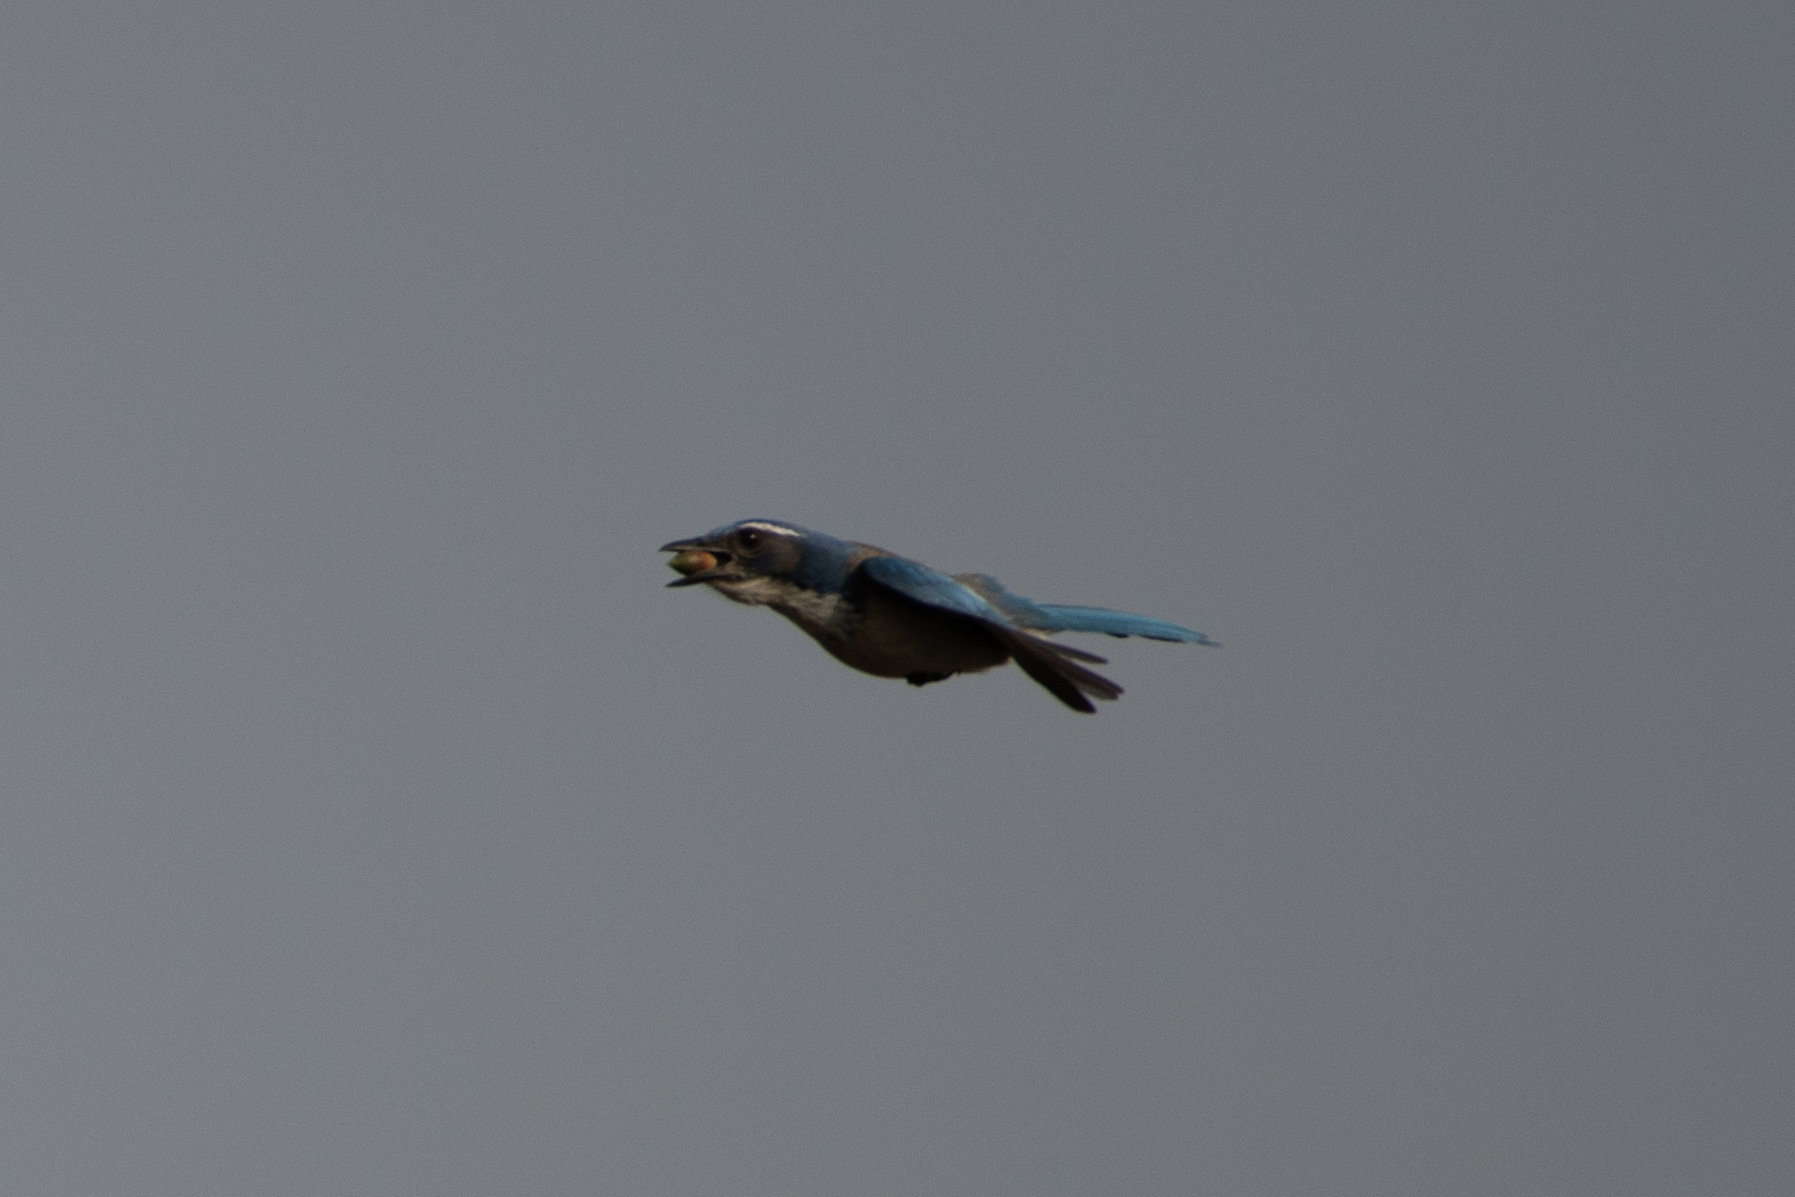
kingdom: Animalia
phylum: Chordata
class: Aves
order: Passeriformes
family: Corvidae
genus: Aphelocoma
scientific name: Aphelocoma californica
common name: California scrub-jay
